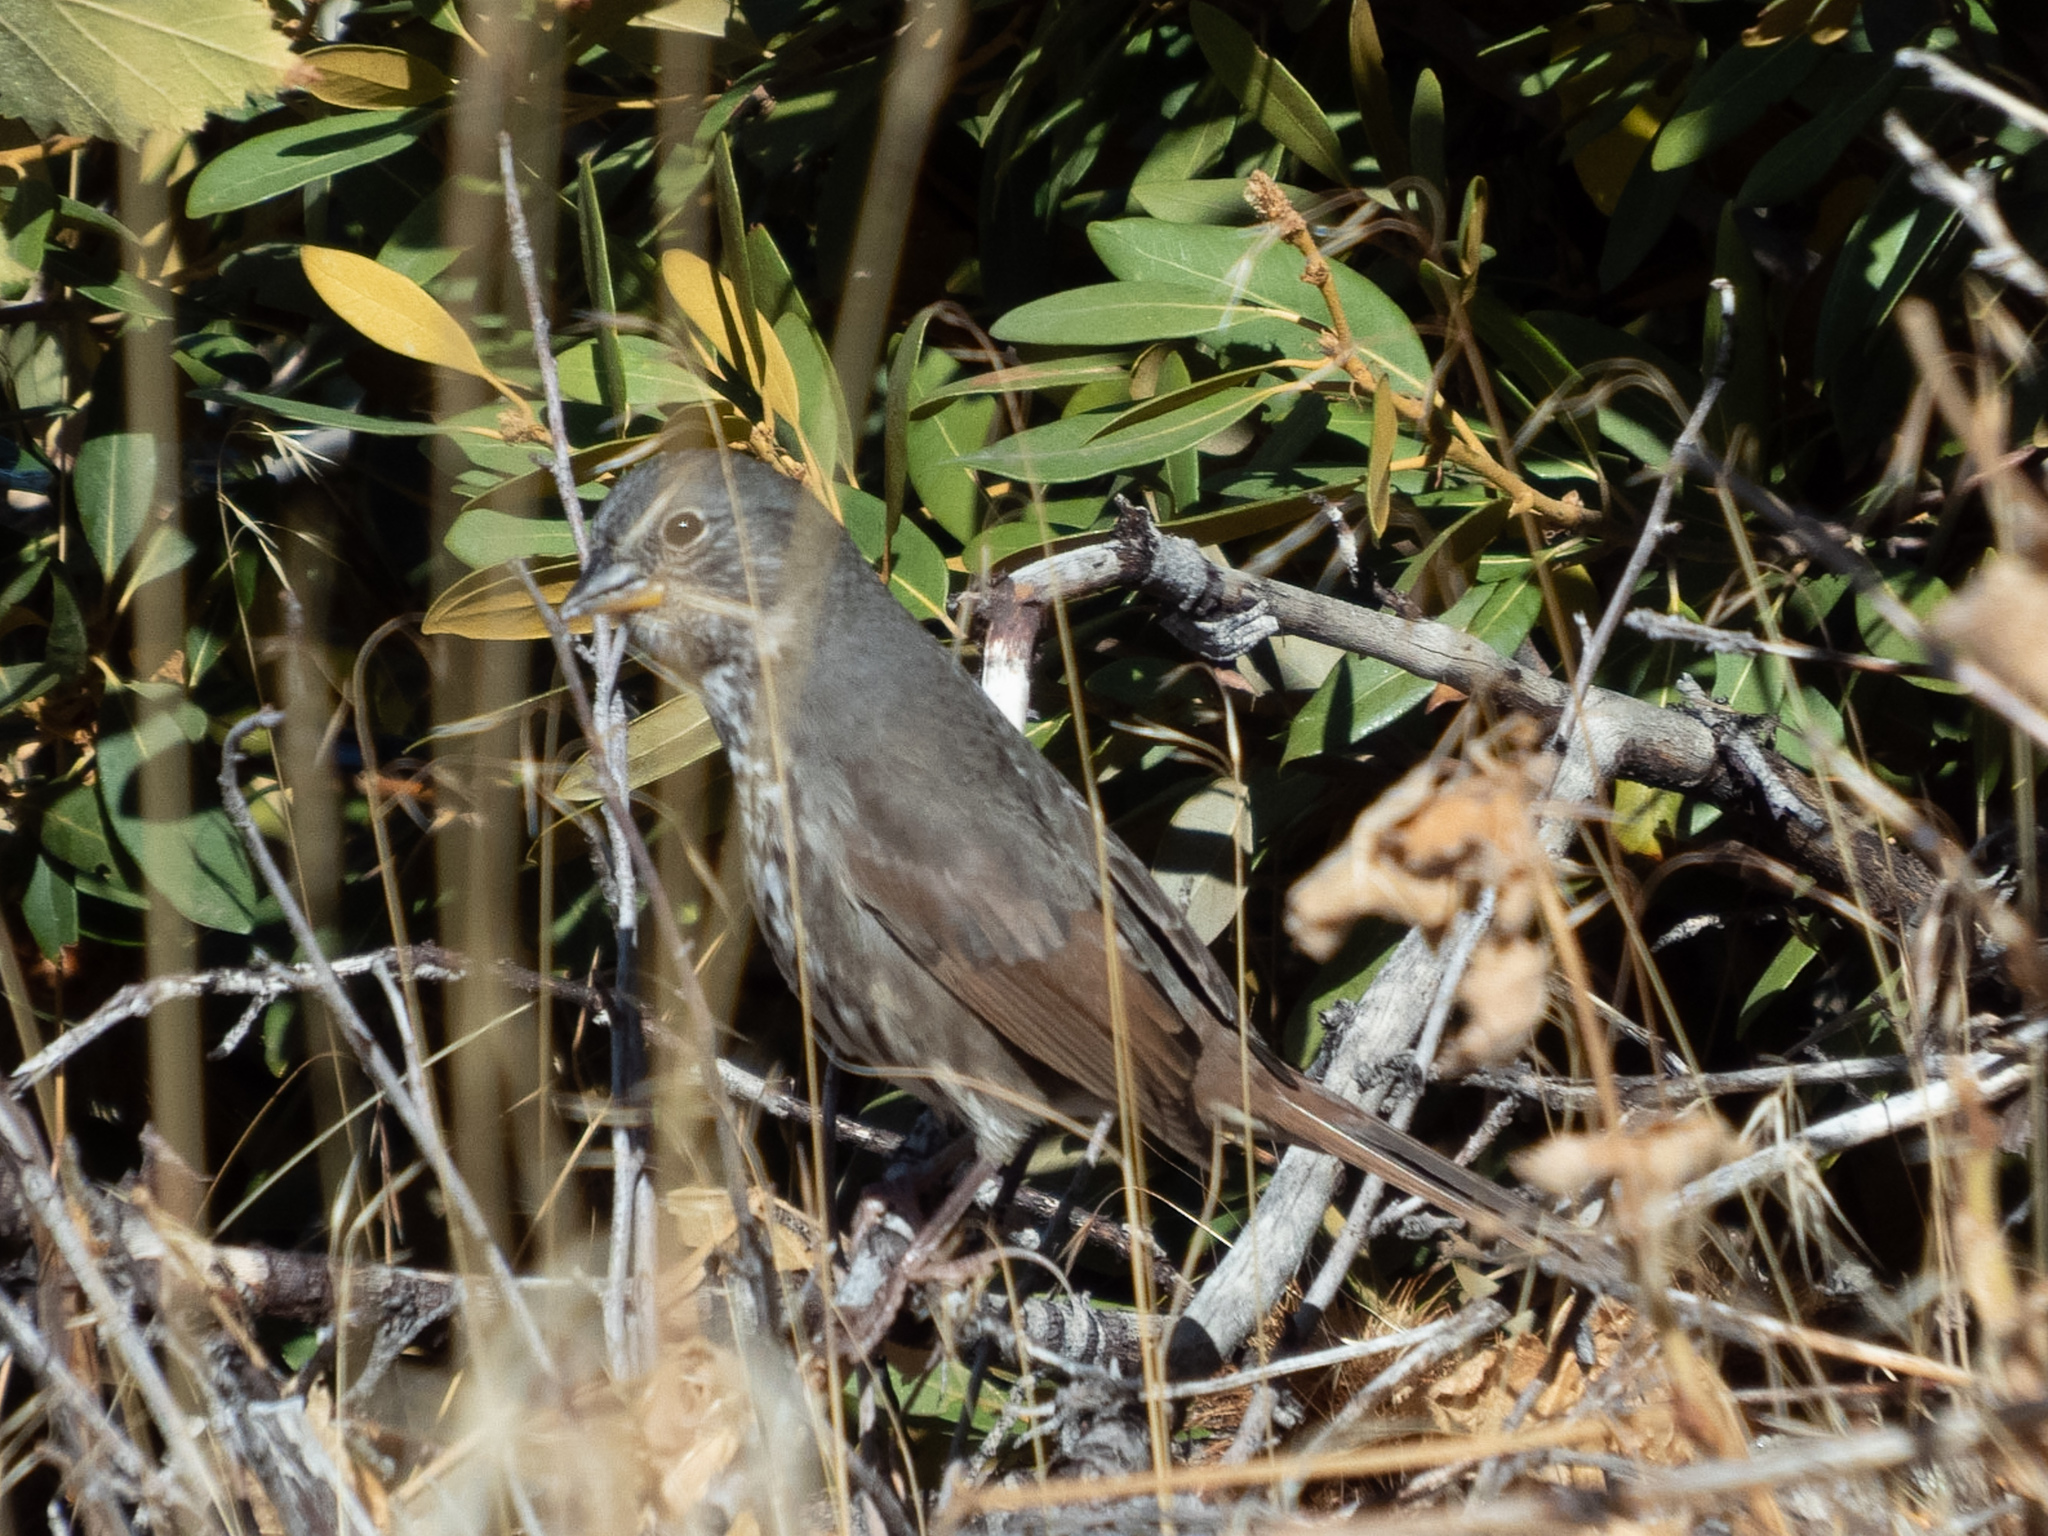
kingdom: Animalia
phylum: Chordata
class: Aves
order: Passeriformes
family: Passerellidae
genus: Passerella
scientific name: Passerella iliaca
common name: Fox sparrow
